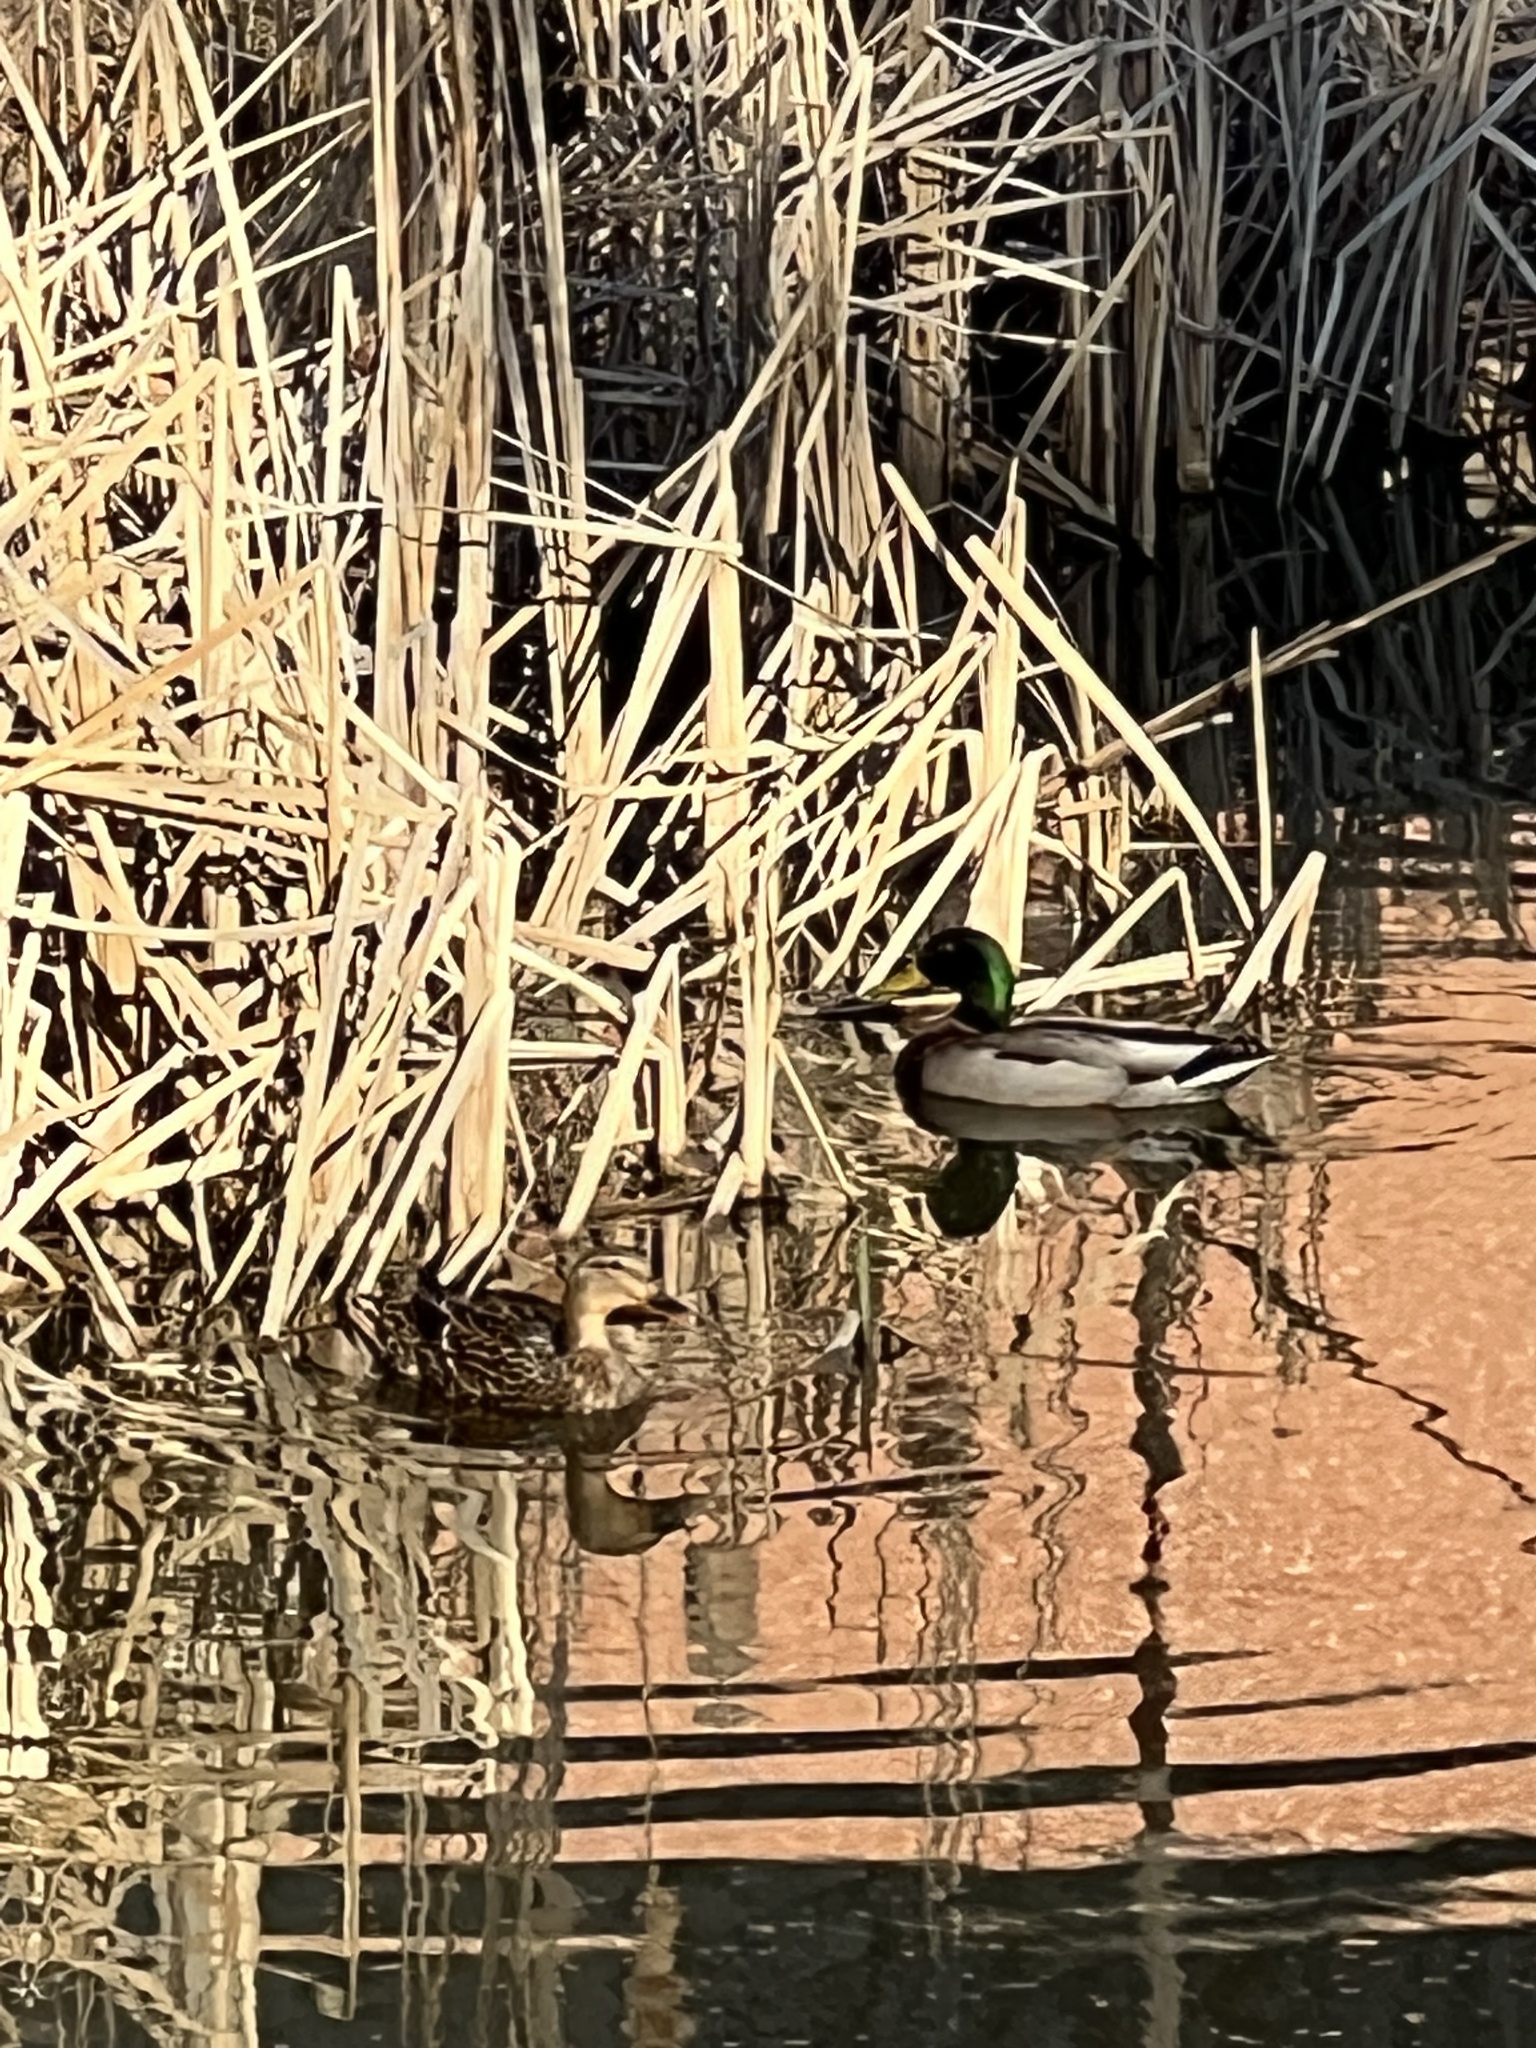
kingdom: Animalia
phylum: Chordata
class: Aves
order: Anseriformes
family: Anatidae
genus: Anas
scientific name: Anas platyrhynchos
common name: Mallard
